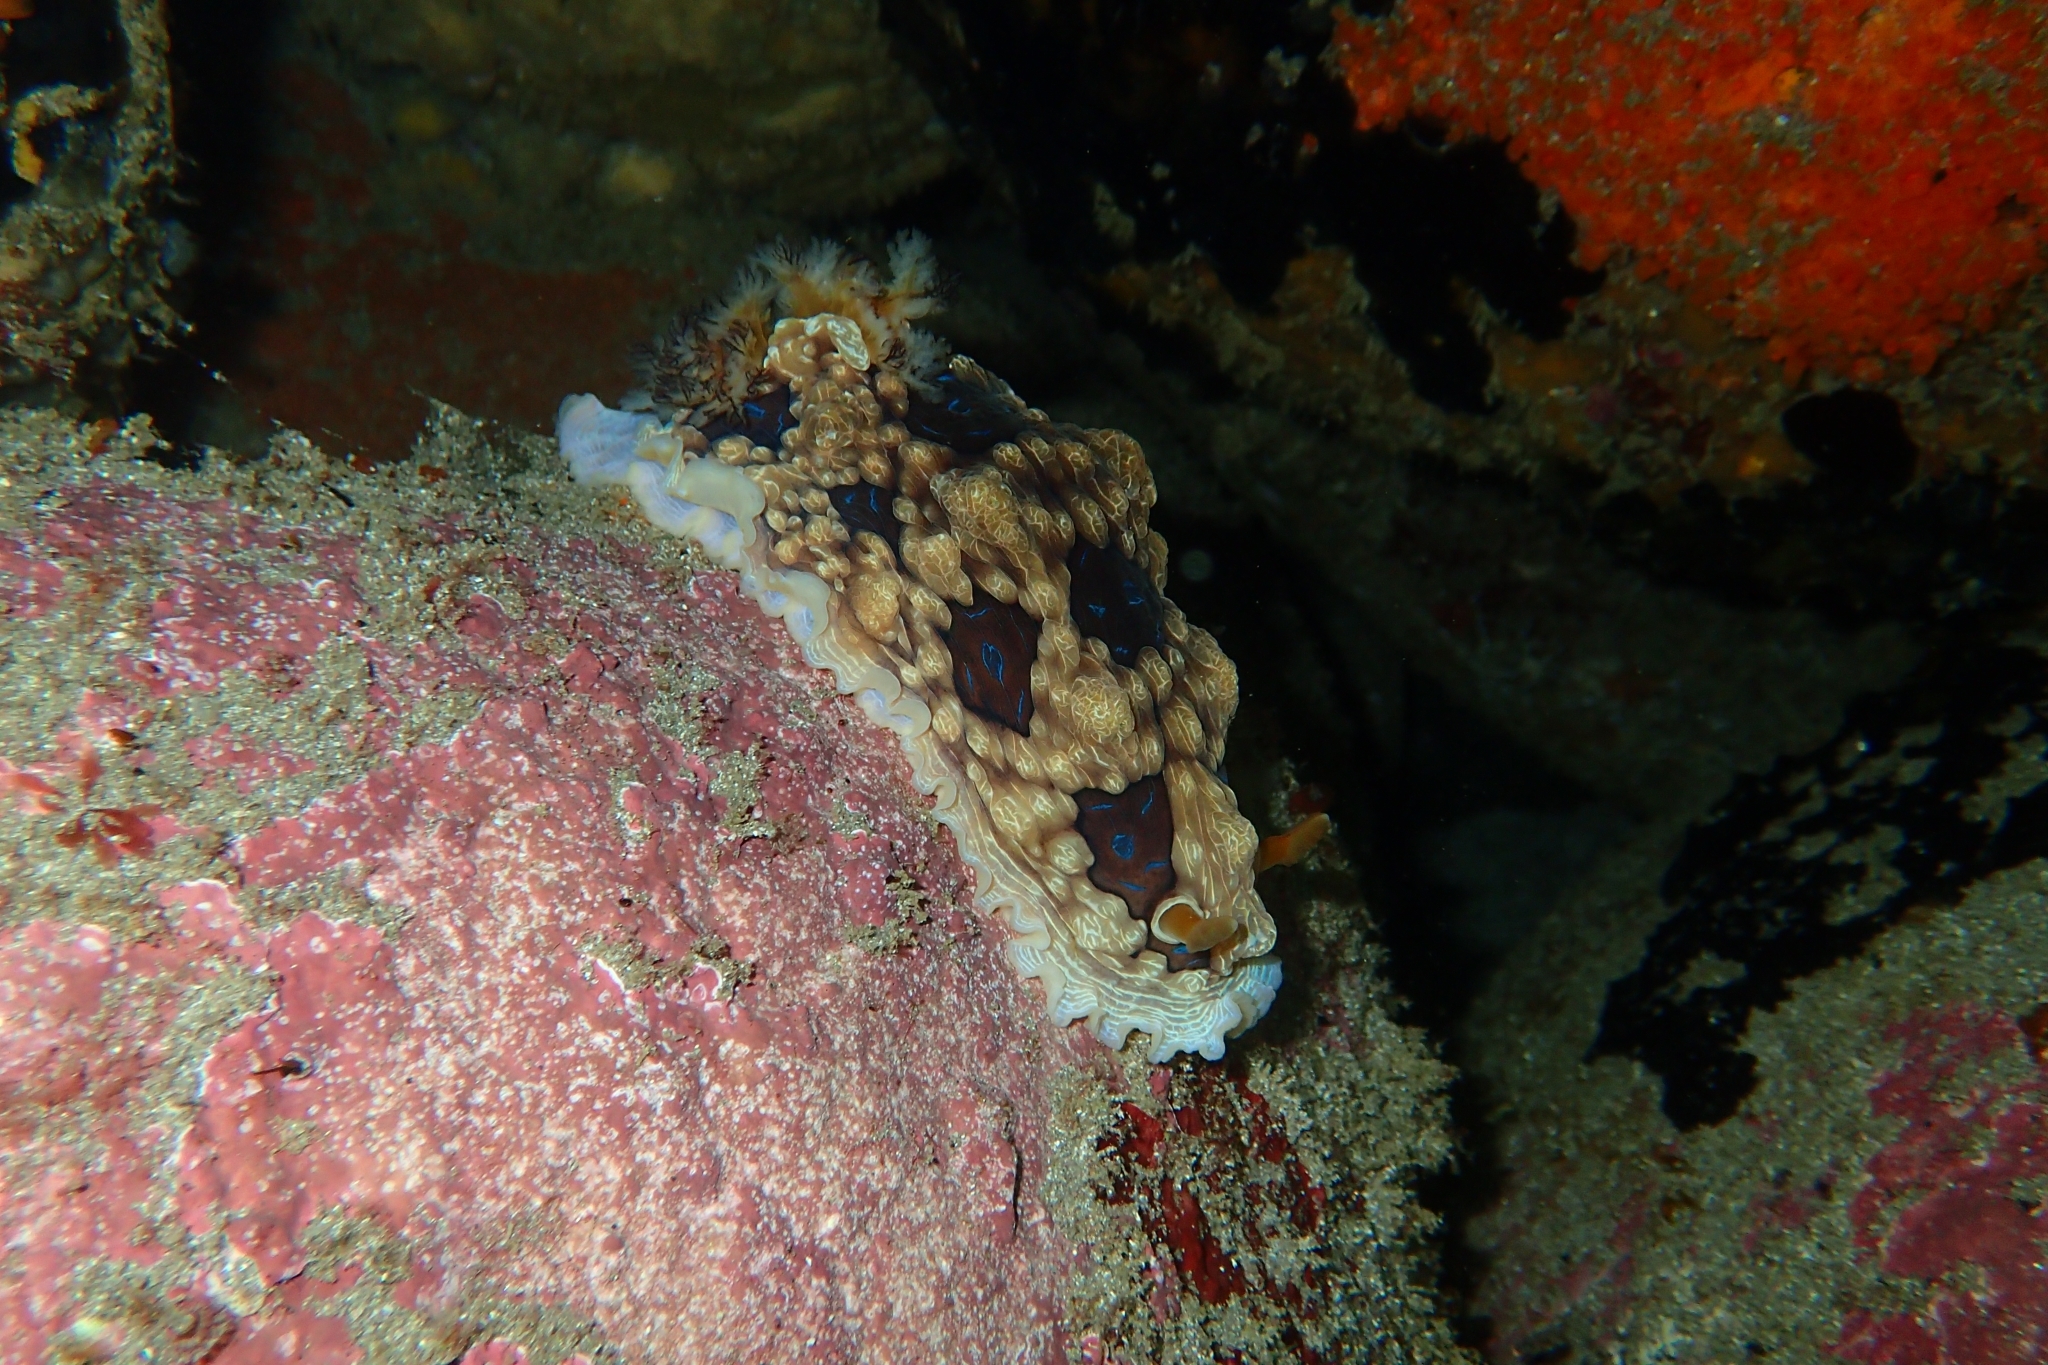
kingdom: Animalia
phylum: Mollusca
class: Gastropoda
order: Nudibranchia
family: Dendrodorididae
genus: Dendrodoris
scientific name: Dendrodoris krusensternii
